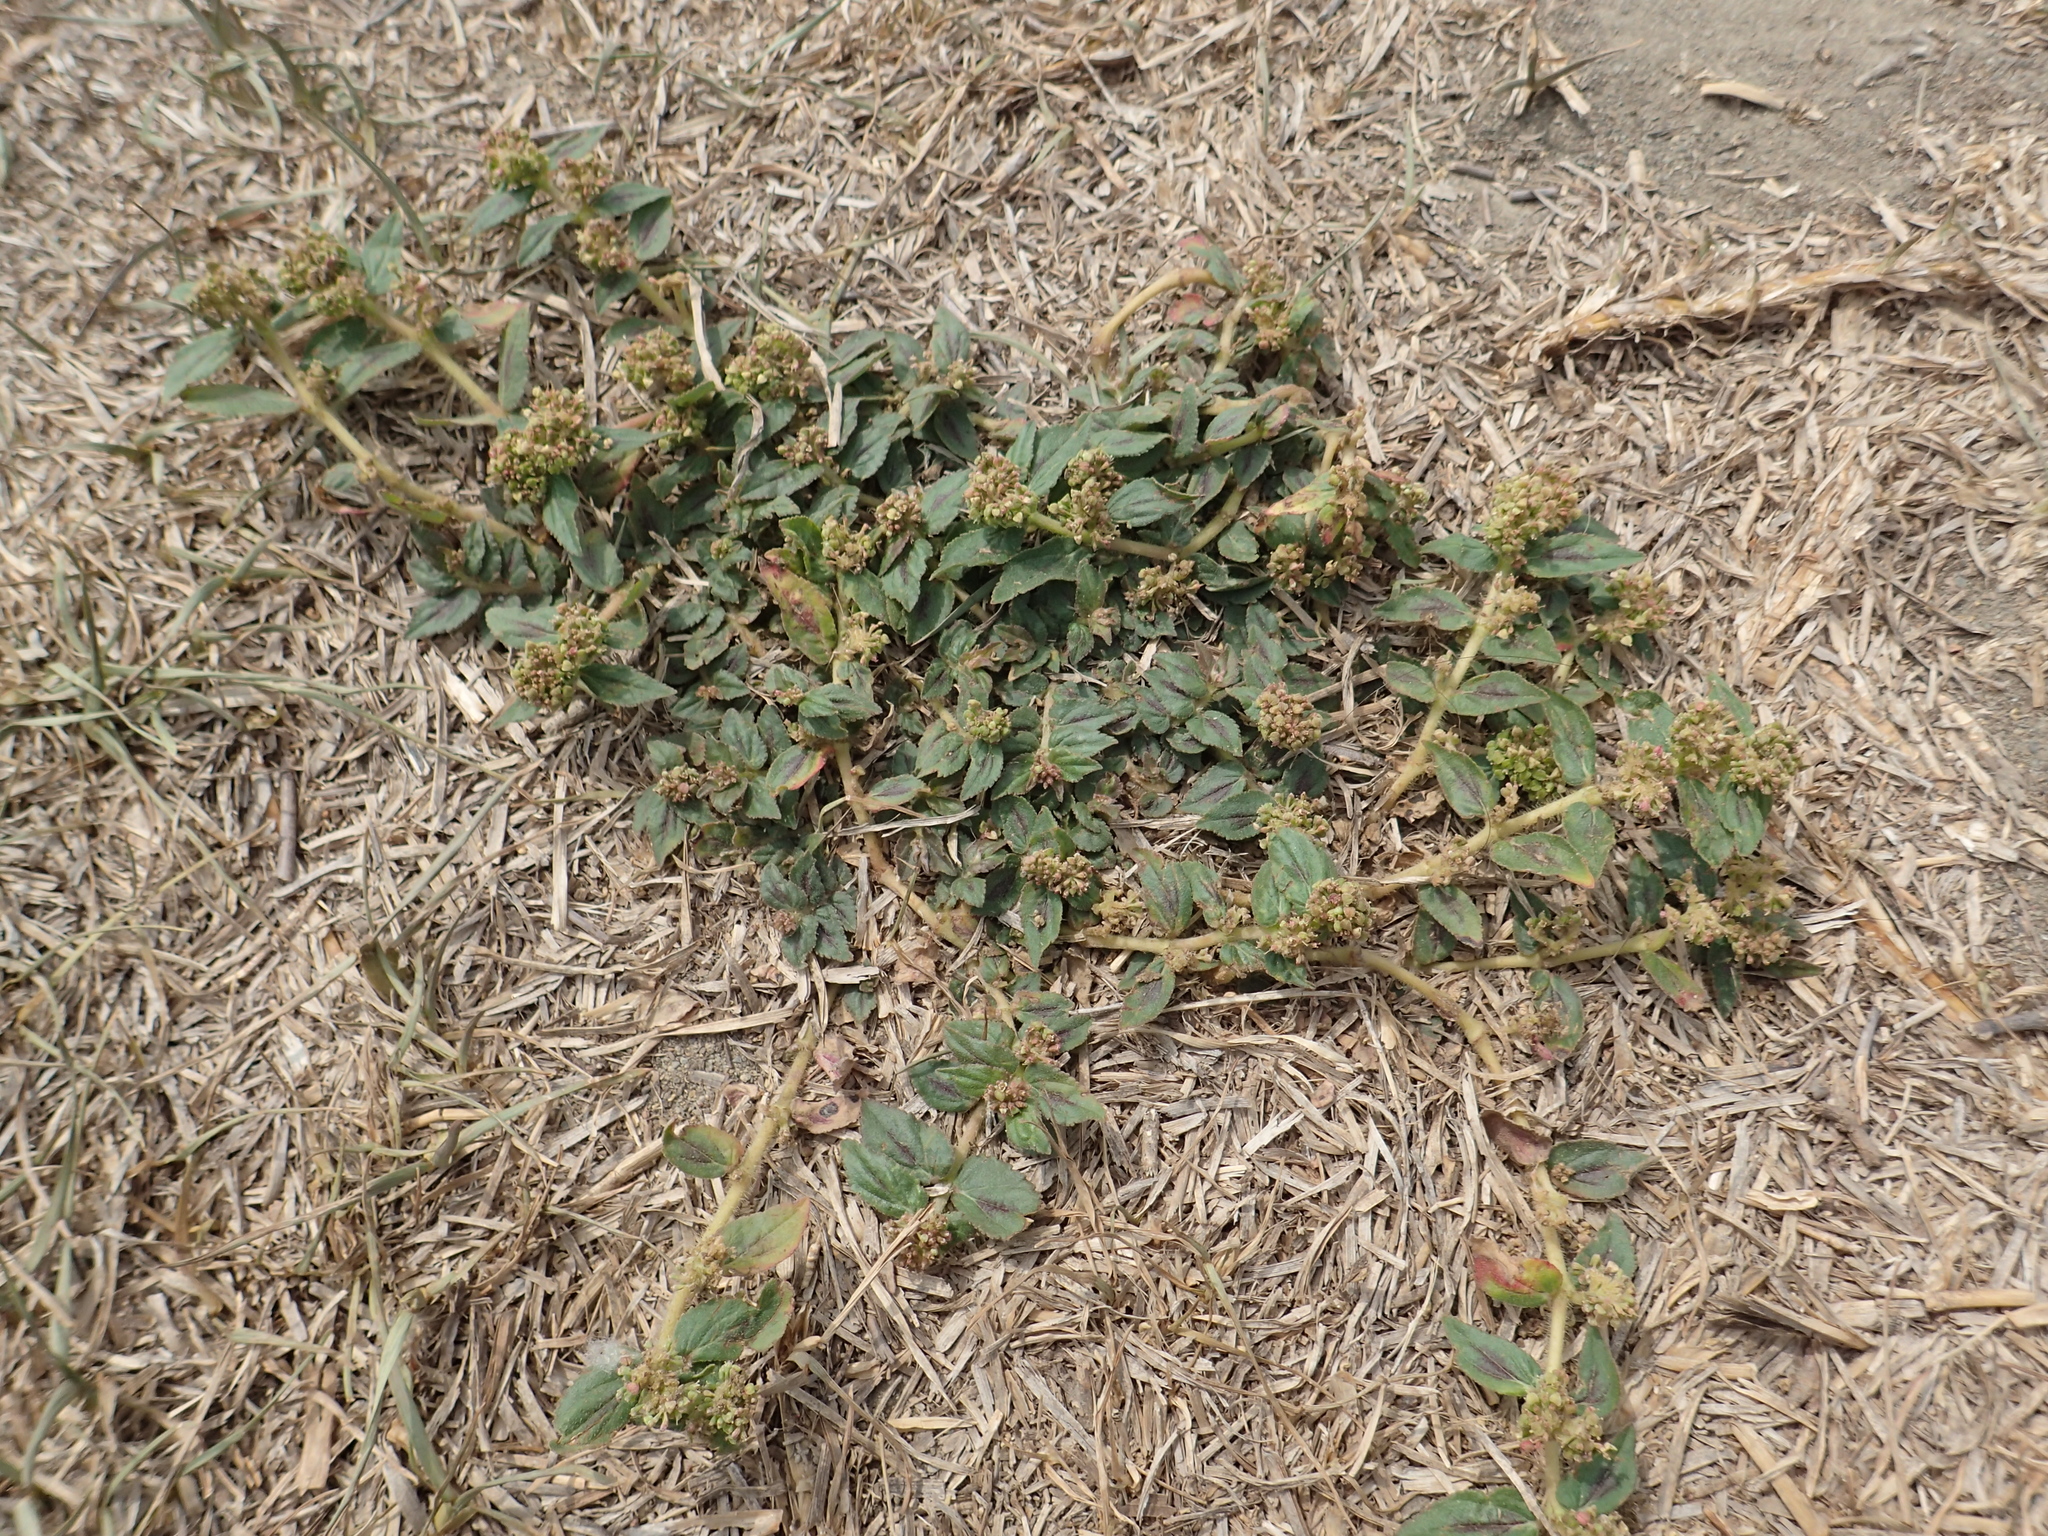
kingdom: Plantae
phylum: Tracheophyta
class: Magnoliopsida
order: Malpighiales
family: Euphorbiaceae
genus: Euphorbia
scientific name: Euphorbia hirta
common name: Pillpod sandmat
